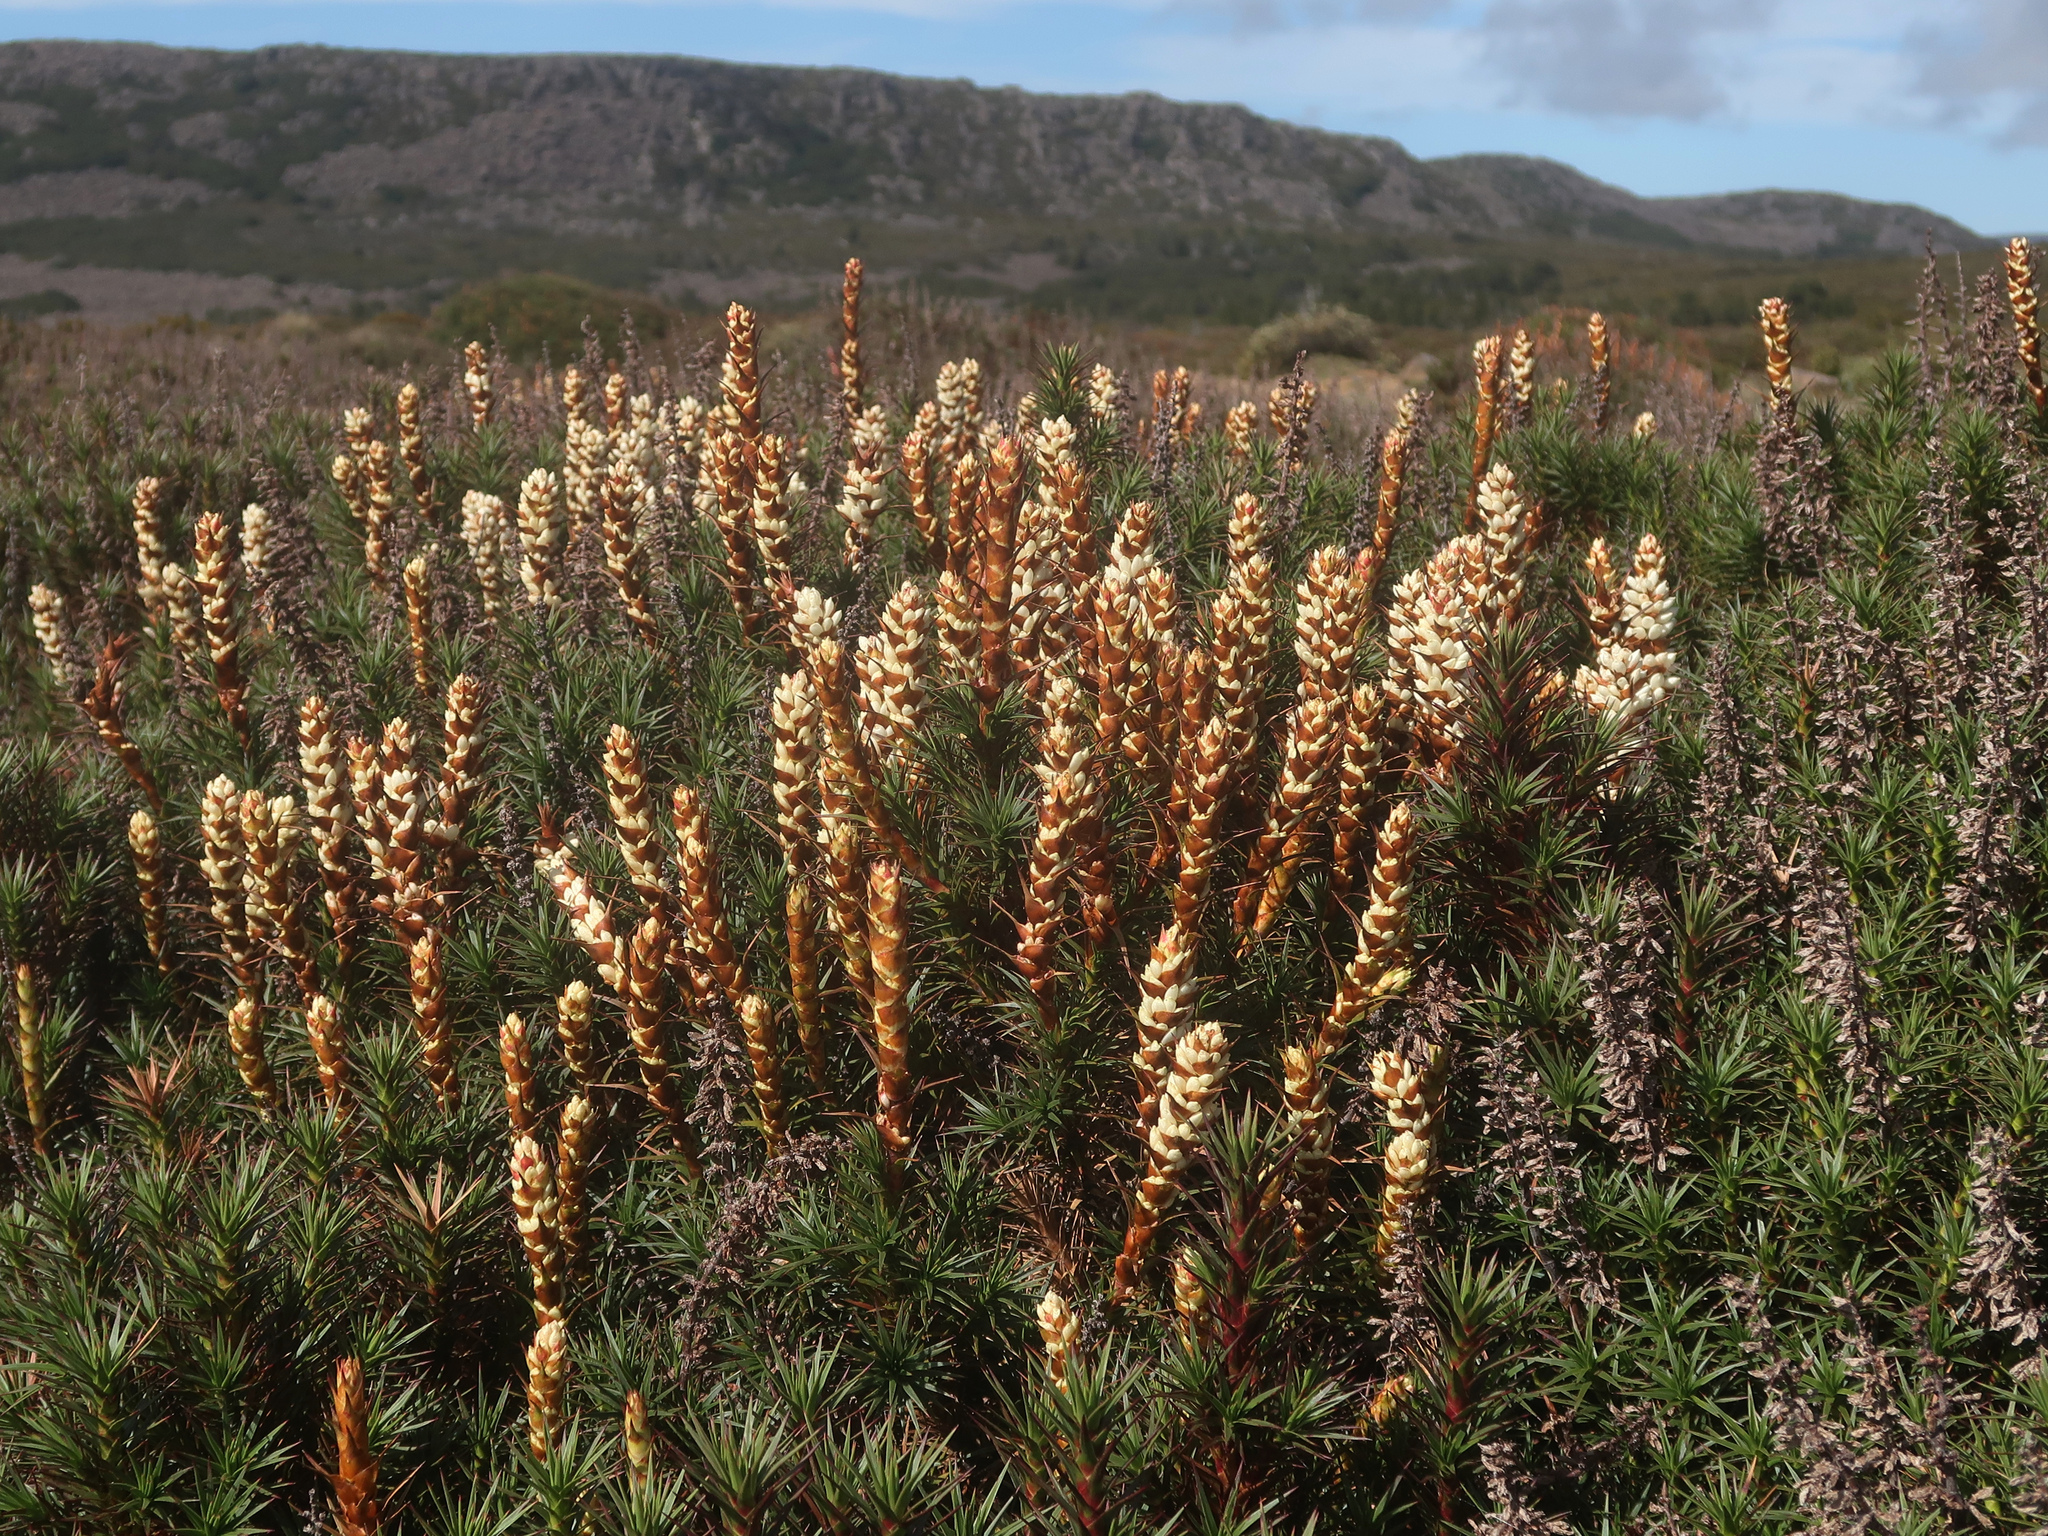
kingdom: Plantae
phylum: Tracheophyta
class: Magnoliopsida
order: Ericales
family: Ericaceae
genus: Dracophyllum
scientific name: Dracophyllum persistentifolium
